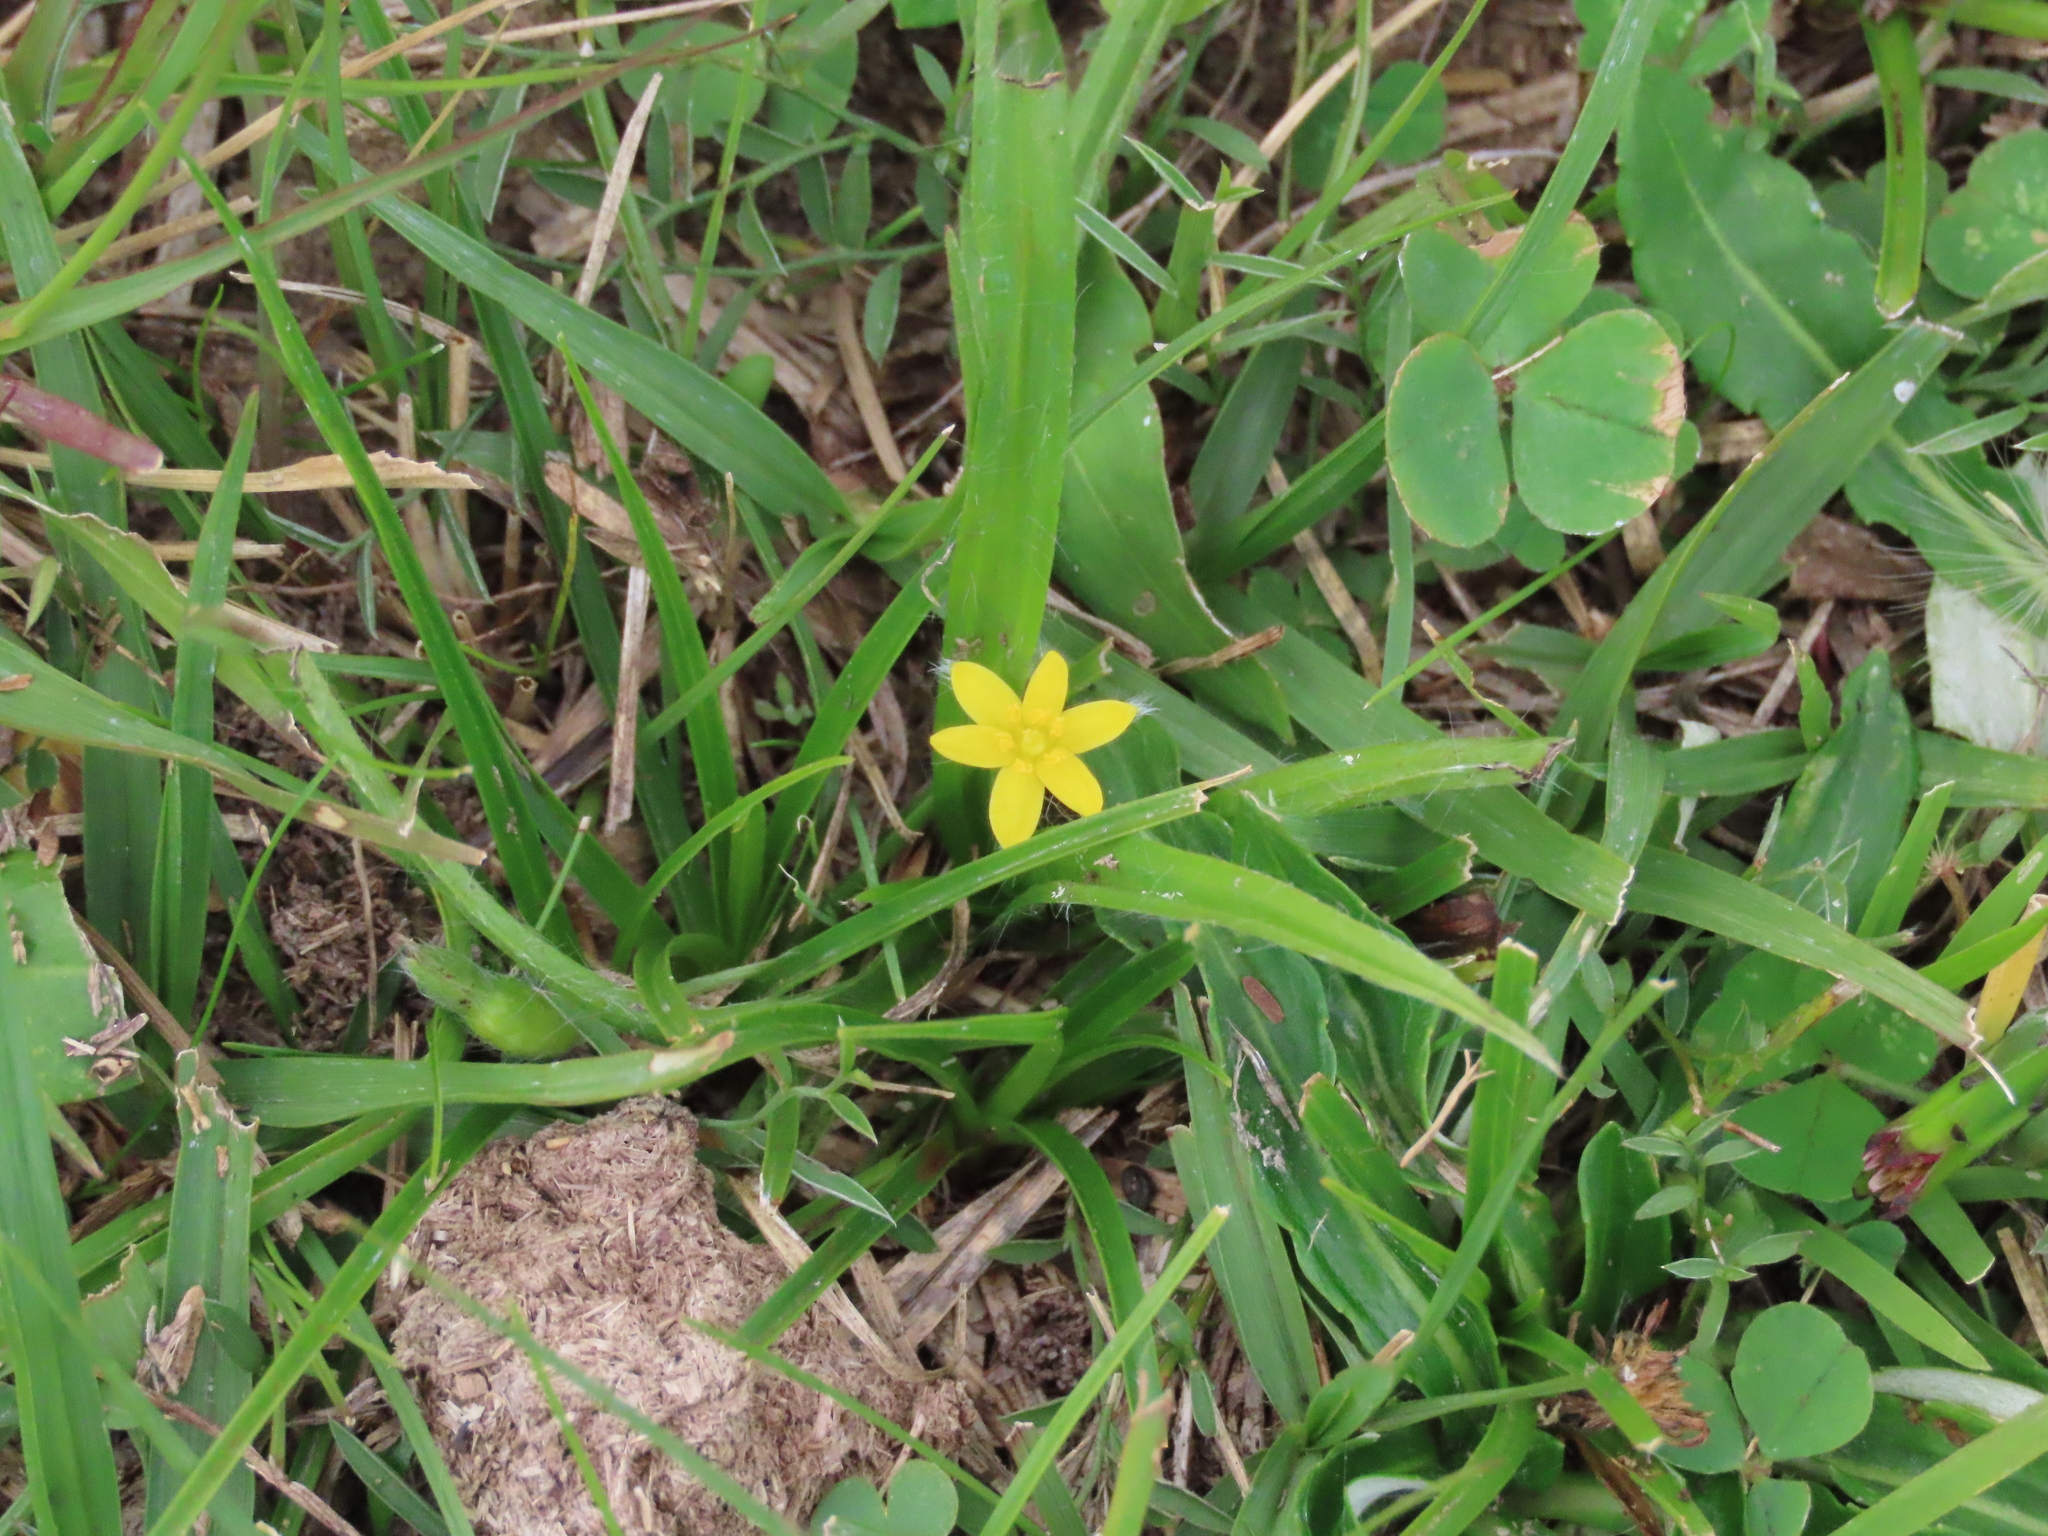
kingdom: Plantae
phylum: Tracheophyta
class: Liliopsida
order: Asparagales
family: Hypoxidaceae
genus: Hypoxis
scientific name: Hypoxis decumbens
